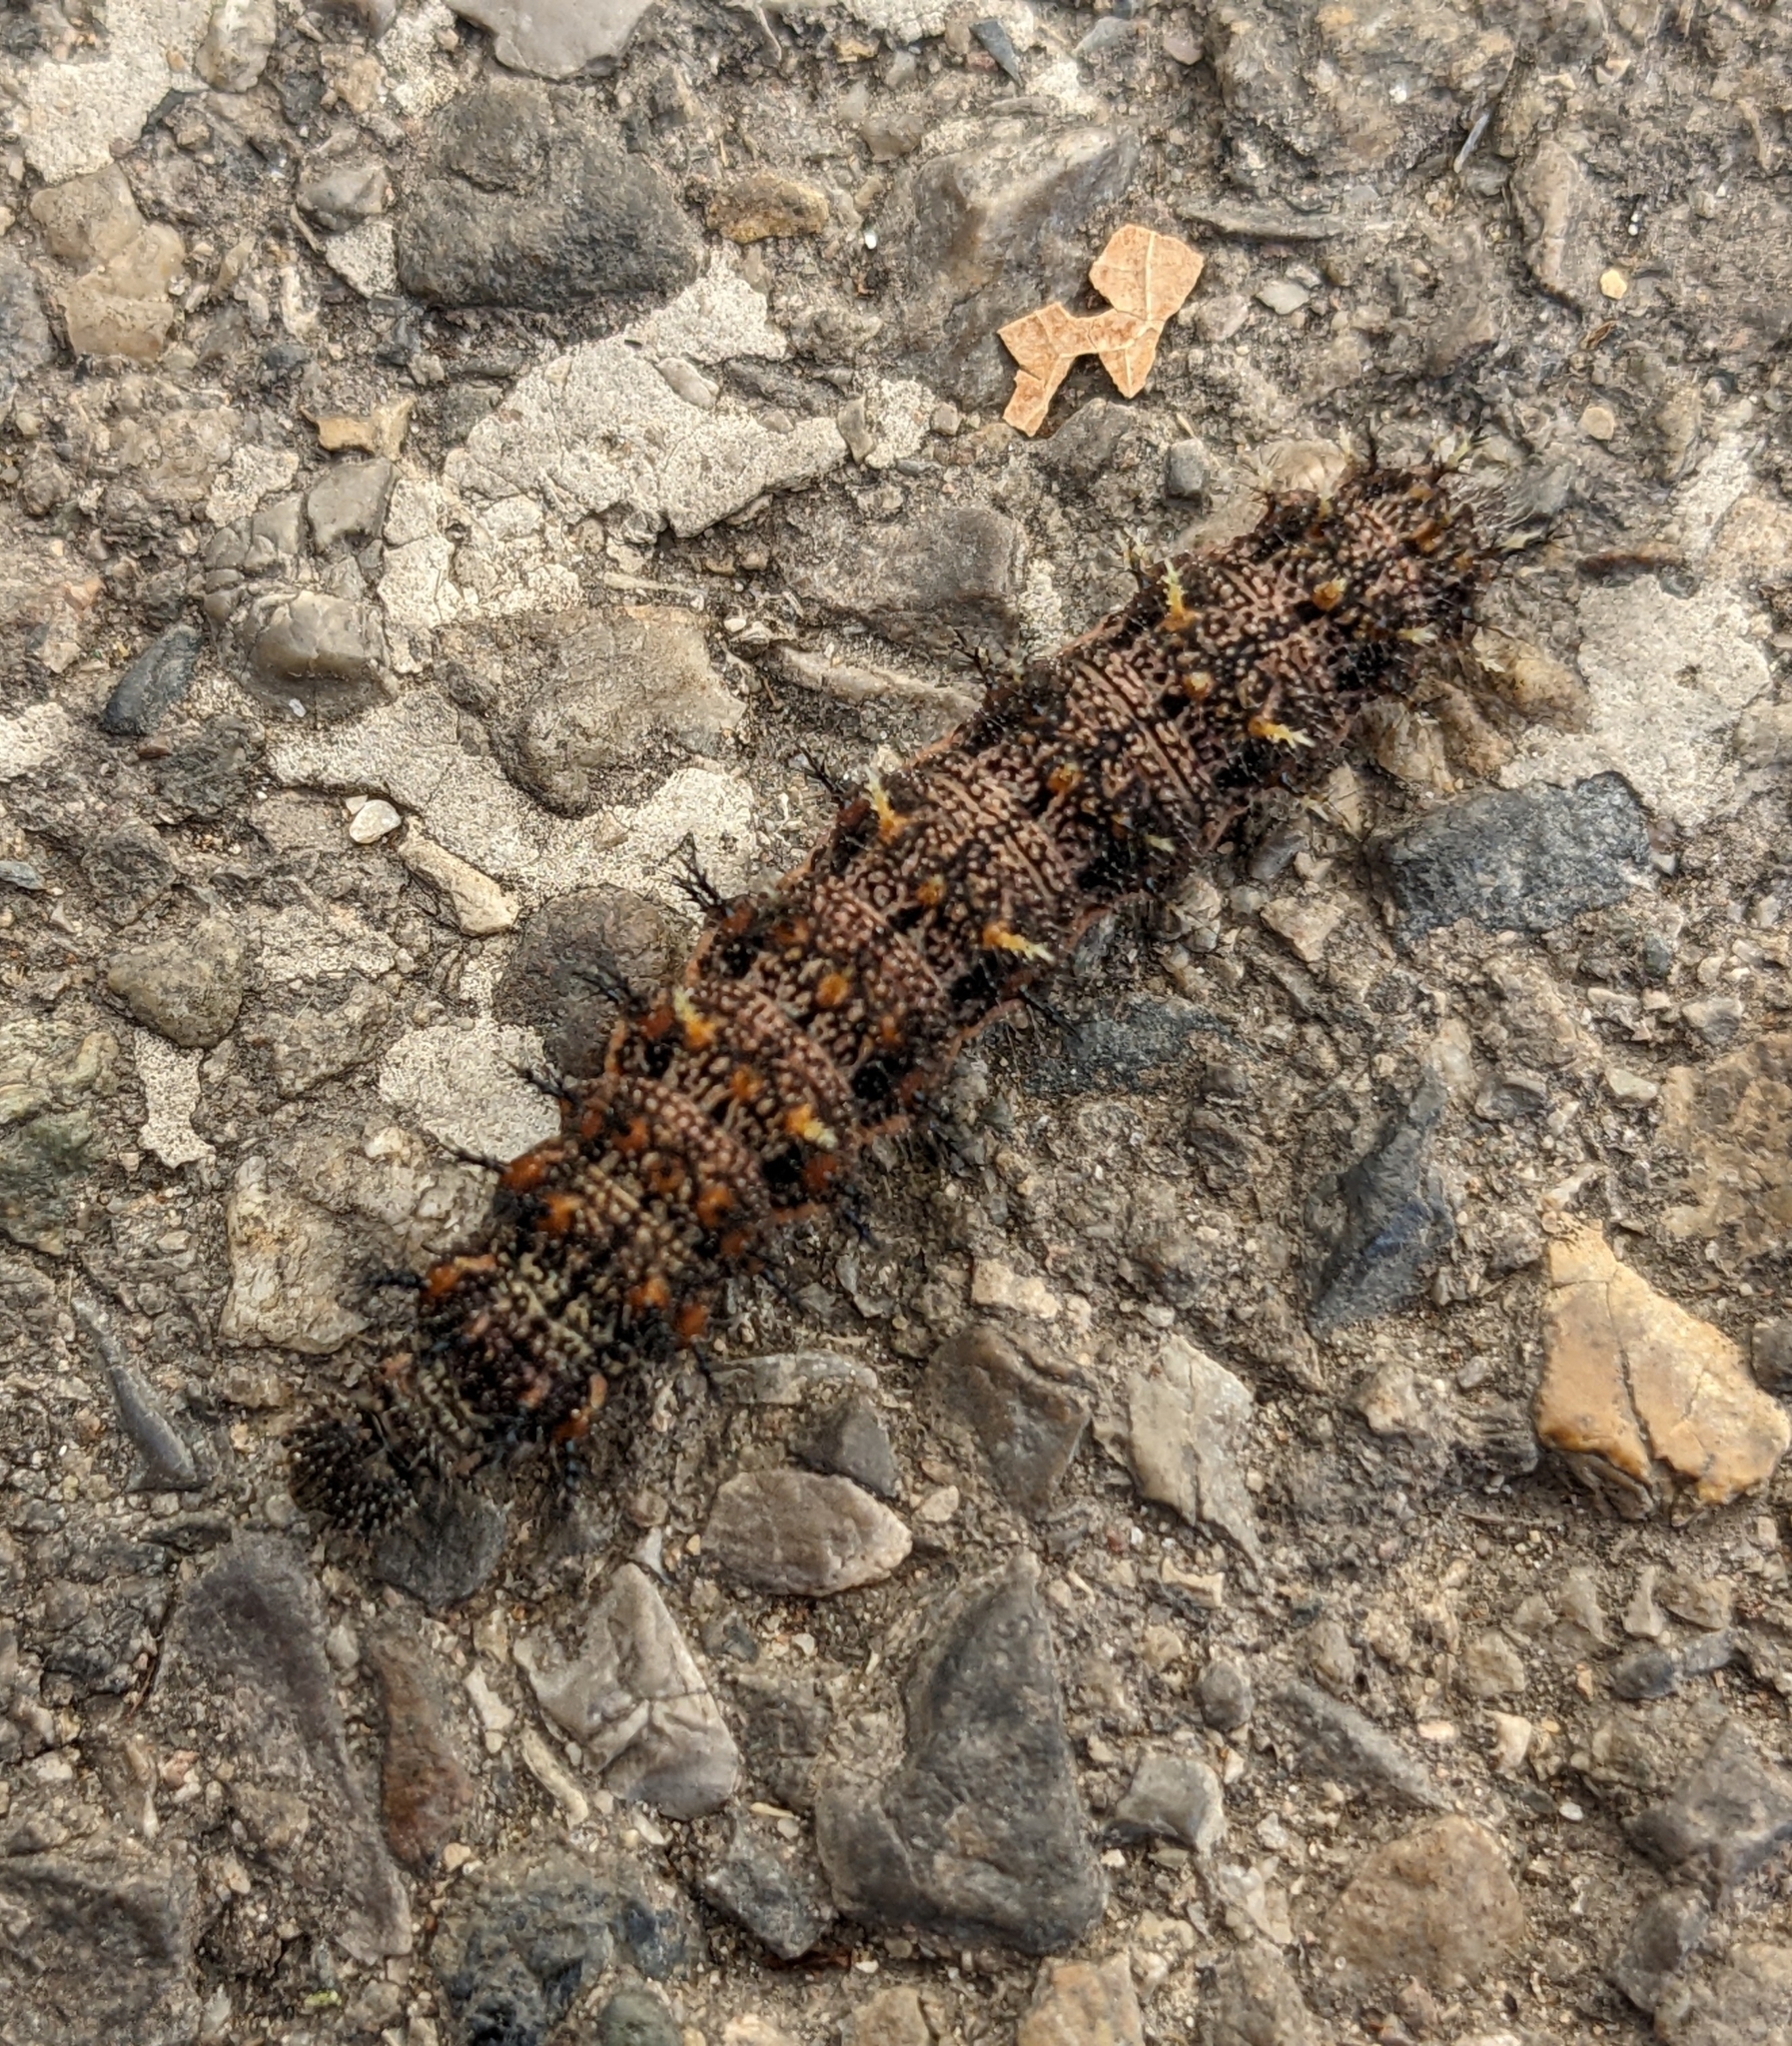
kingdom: Animalia
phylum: Arthropoda
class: Insecta
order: Lepidoptera
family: Nymphalidae
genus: Vanessa
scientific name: Vanessa atalanta
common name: Red admiral
